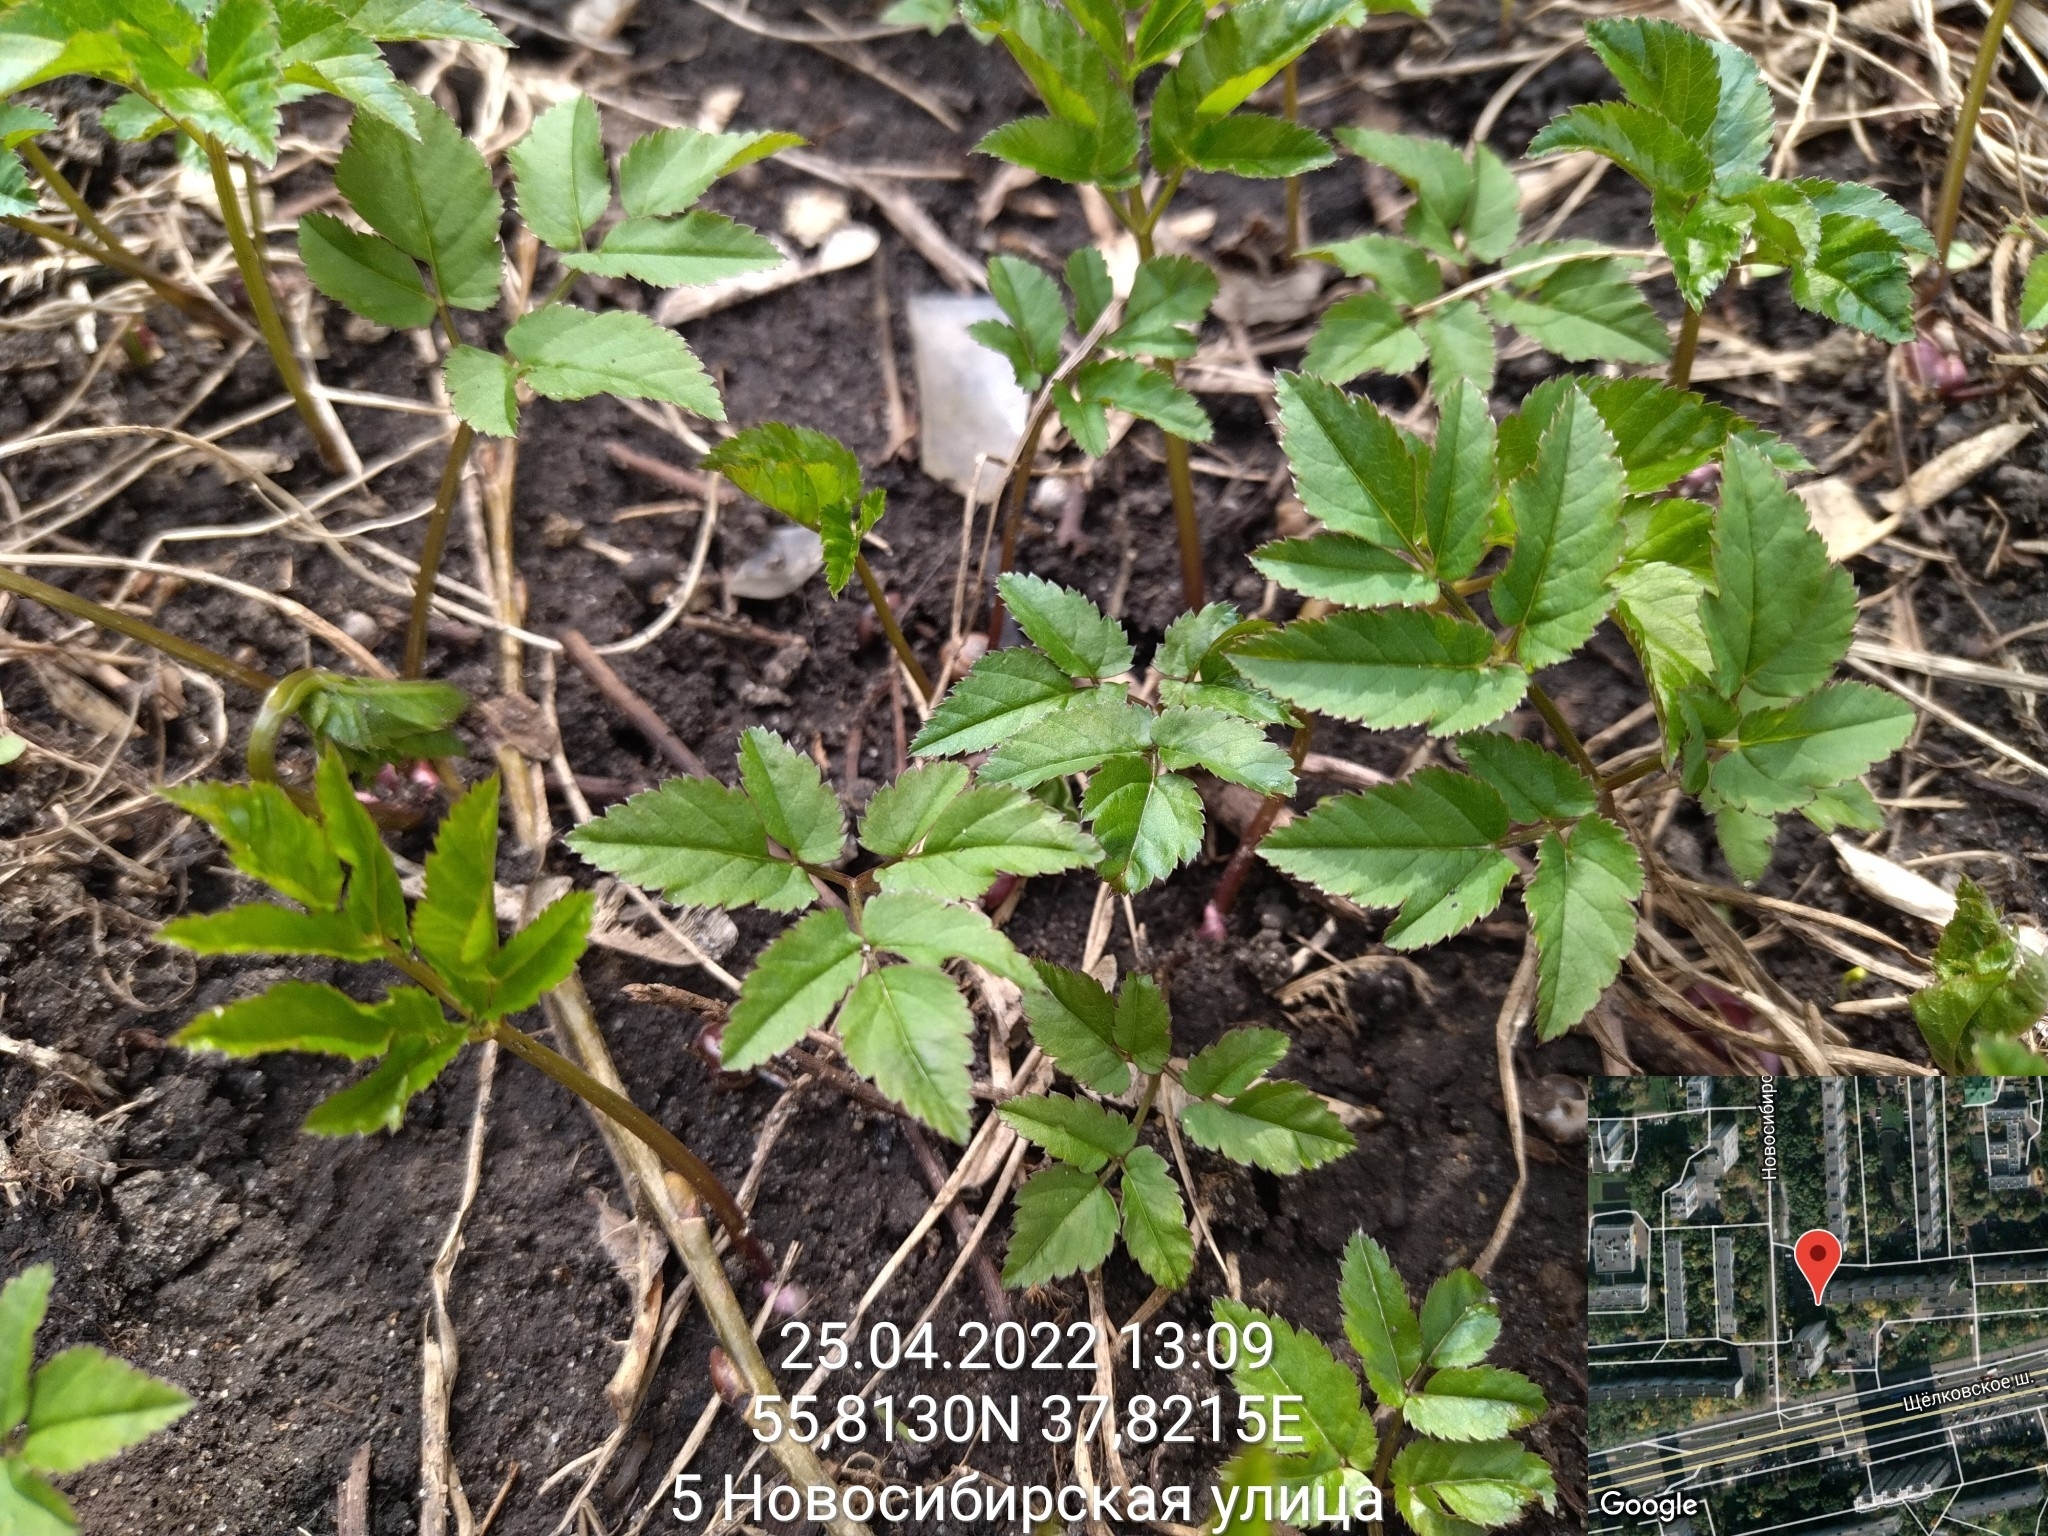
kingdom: Plantae
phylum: Tracheophyta
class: Magnoliopsida
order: Apiales
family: Apiaceae
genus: Aegopodium
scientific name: Aegopodium podagraria
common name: Ground-elder
